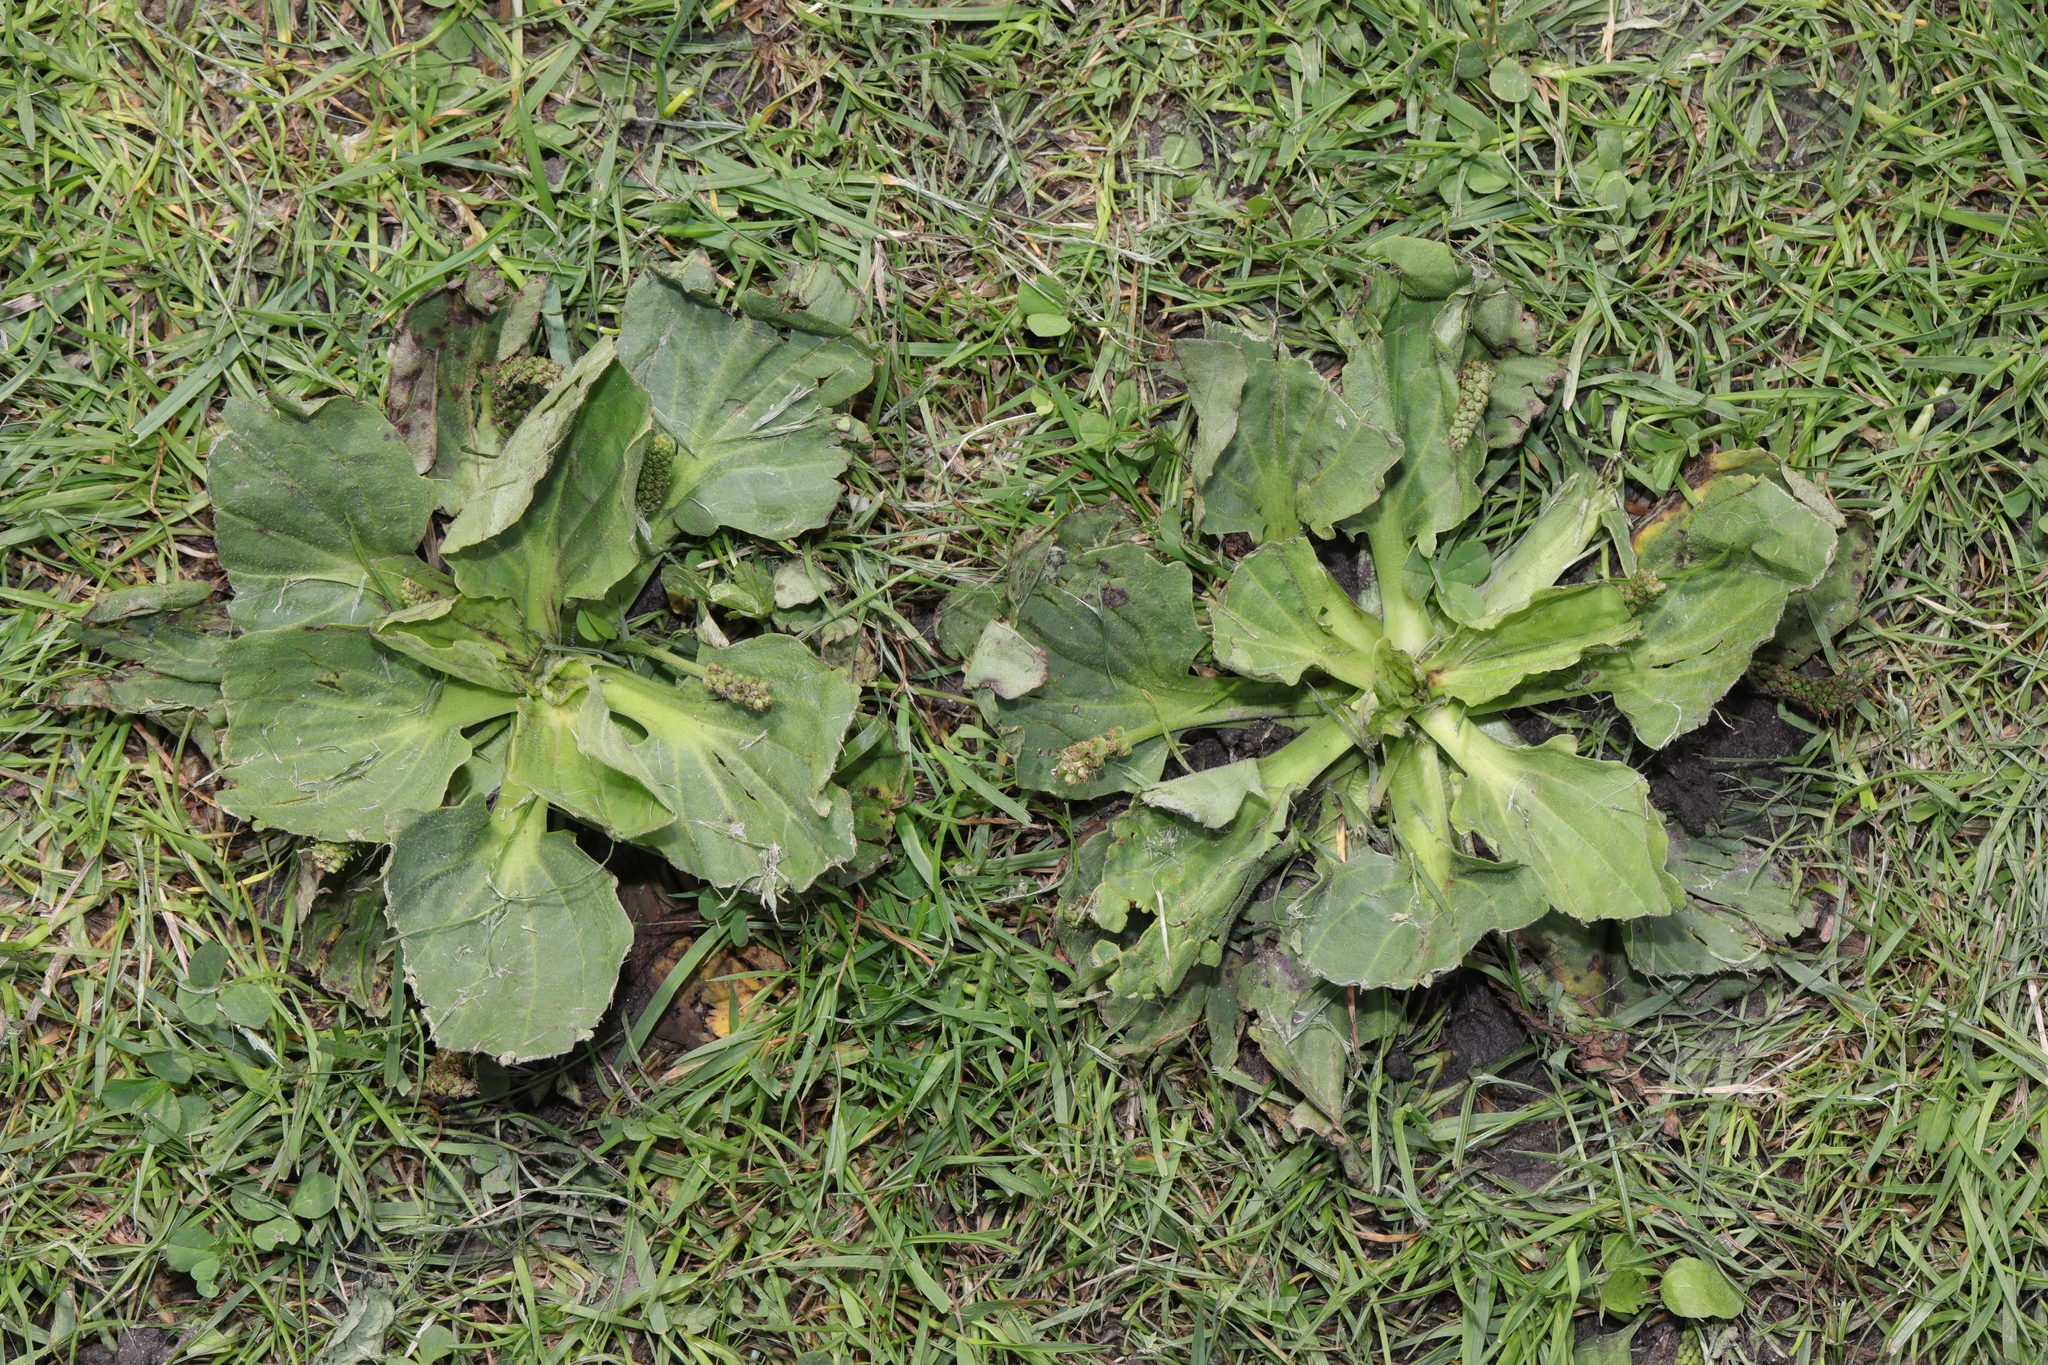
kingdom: Plantae
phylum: Tracheophyta
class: Magnoliopsida
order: Lamiales
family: Plantaginaceae
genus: Plantago
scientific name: Plantago major
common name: Common plantain
